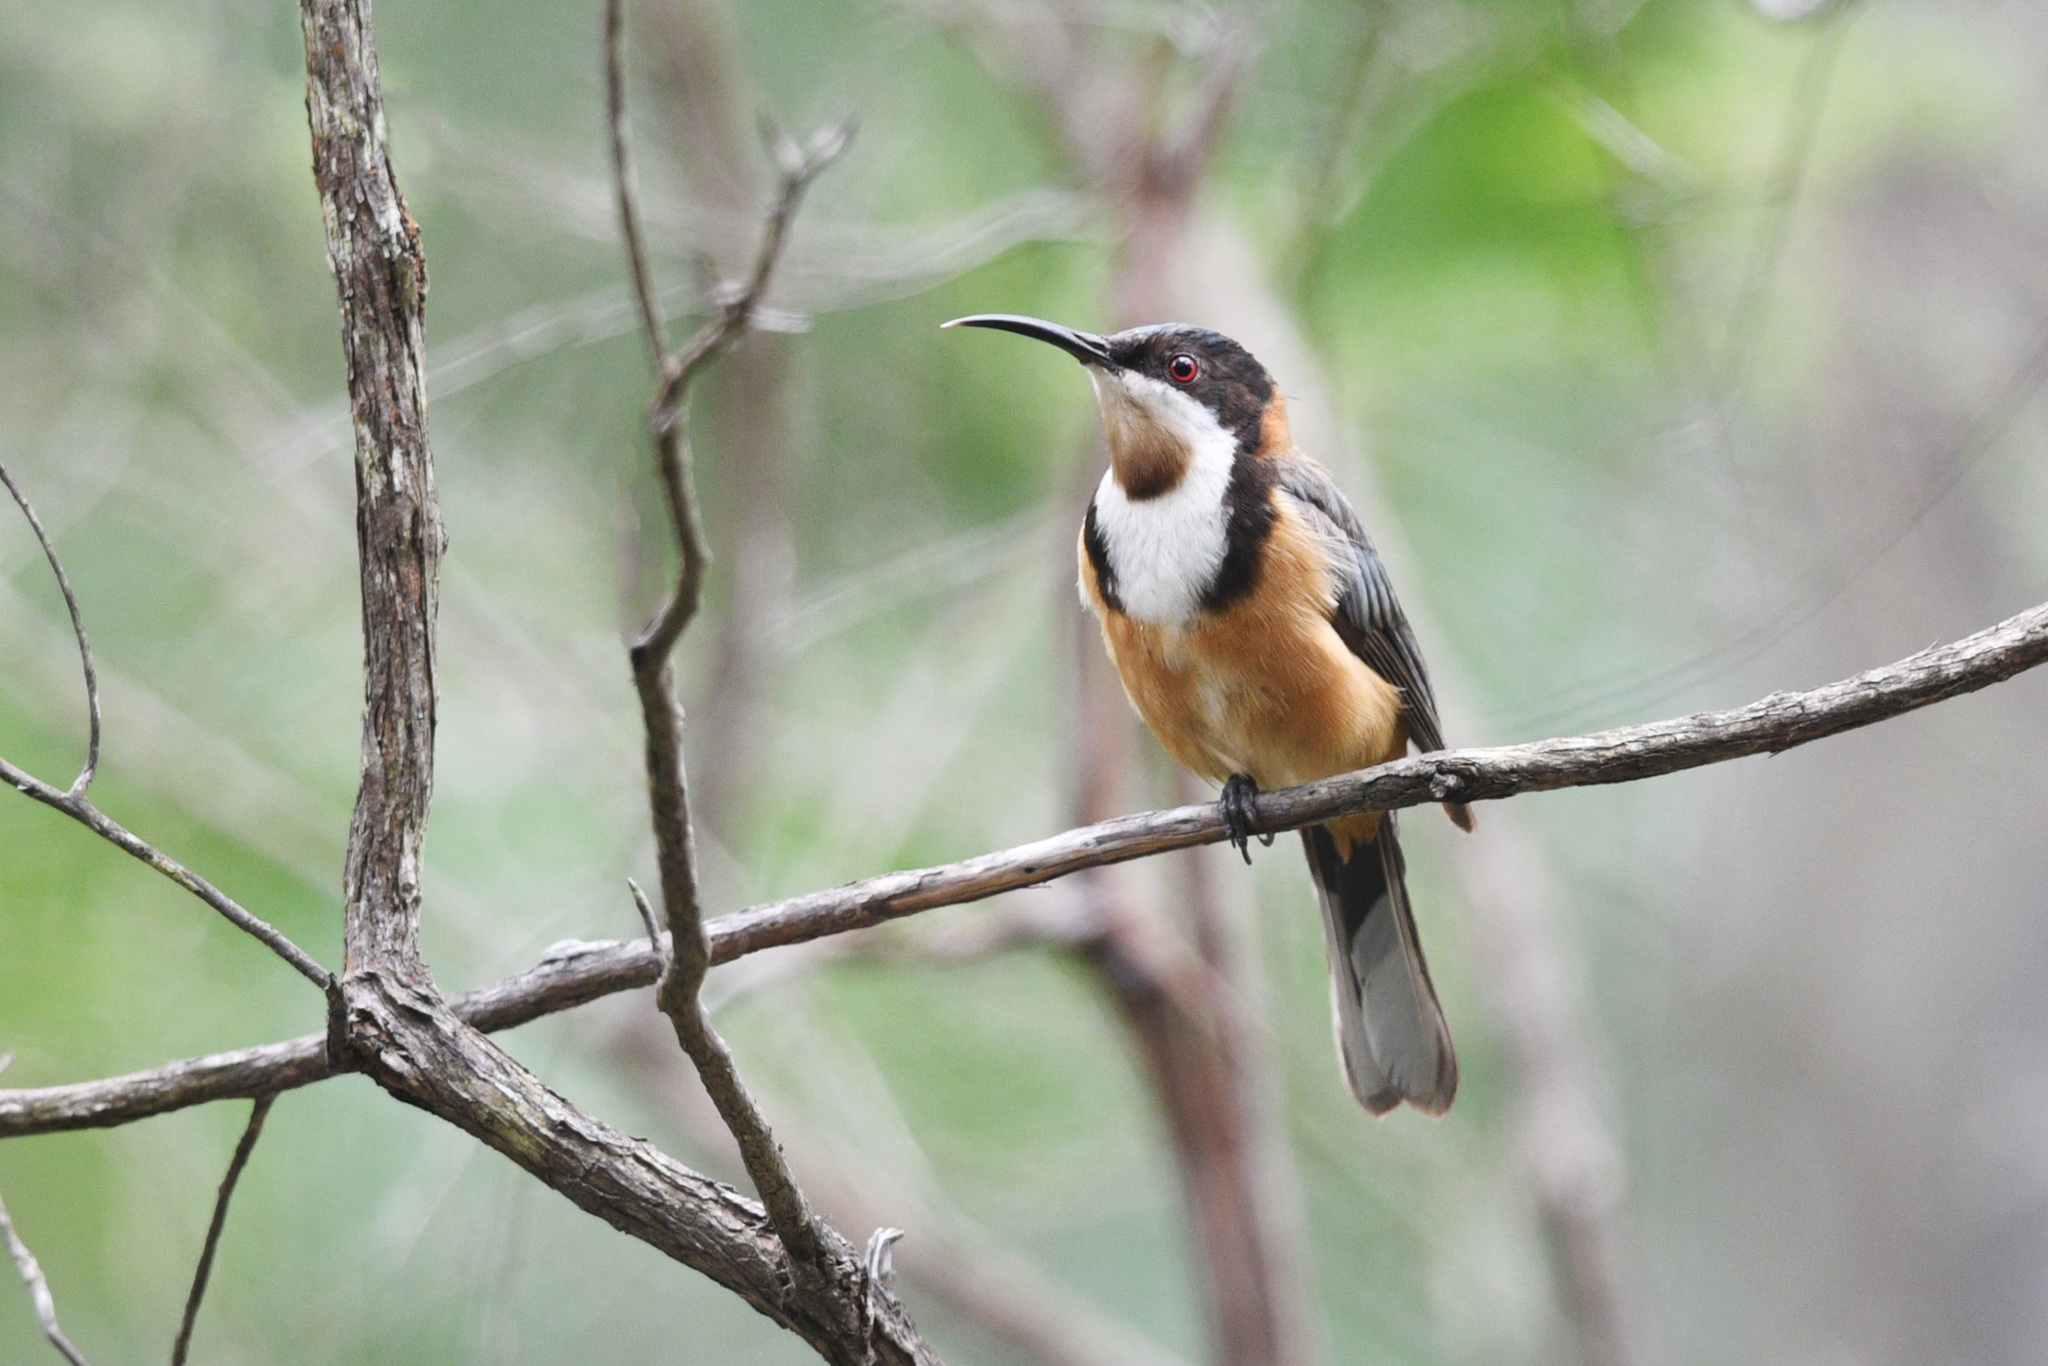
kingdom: Animalia
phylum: Chordata
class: Aves
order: Passeriformes
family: Meliphagidae
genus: Acanthorhynchus
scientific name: Acanthorhynchus tenuirostris
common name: Eastern spinebill
